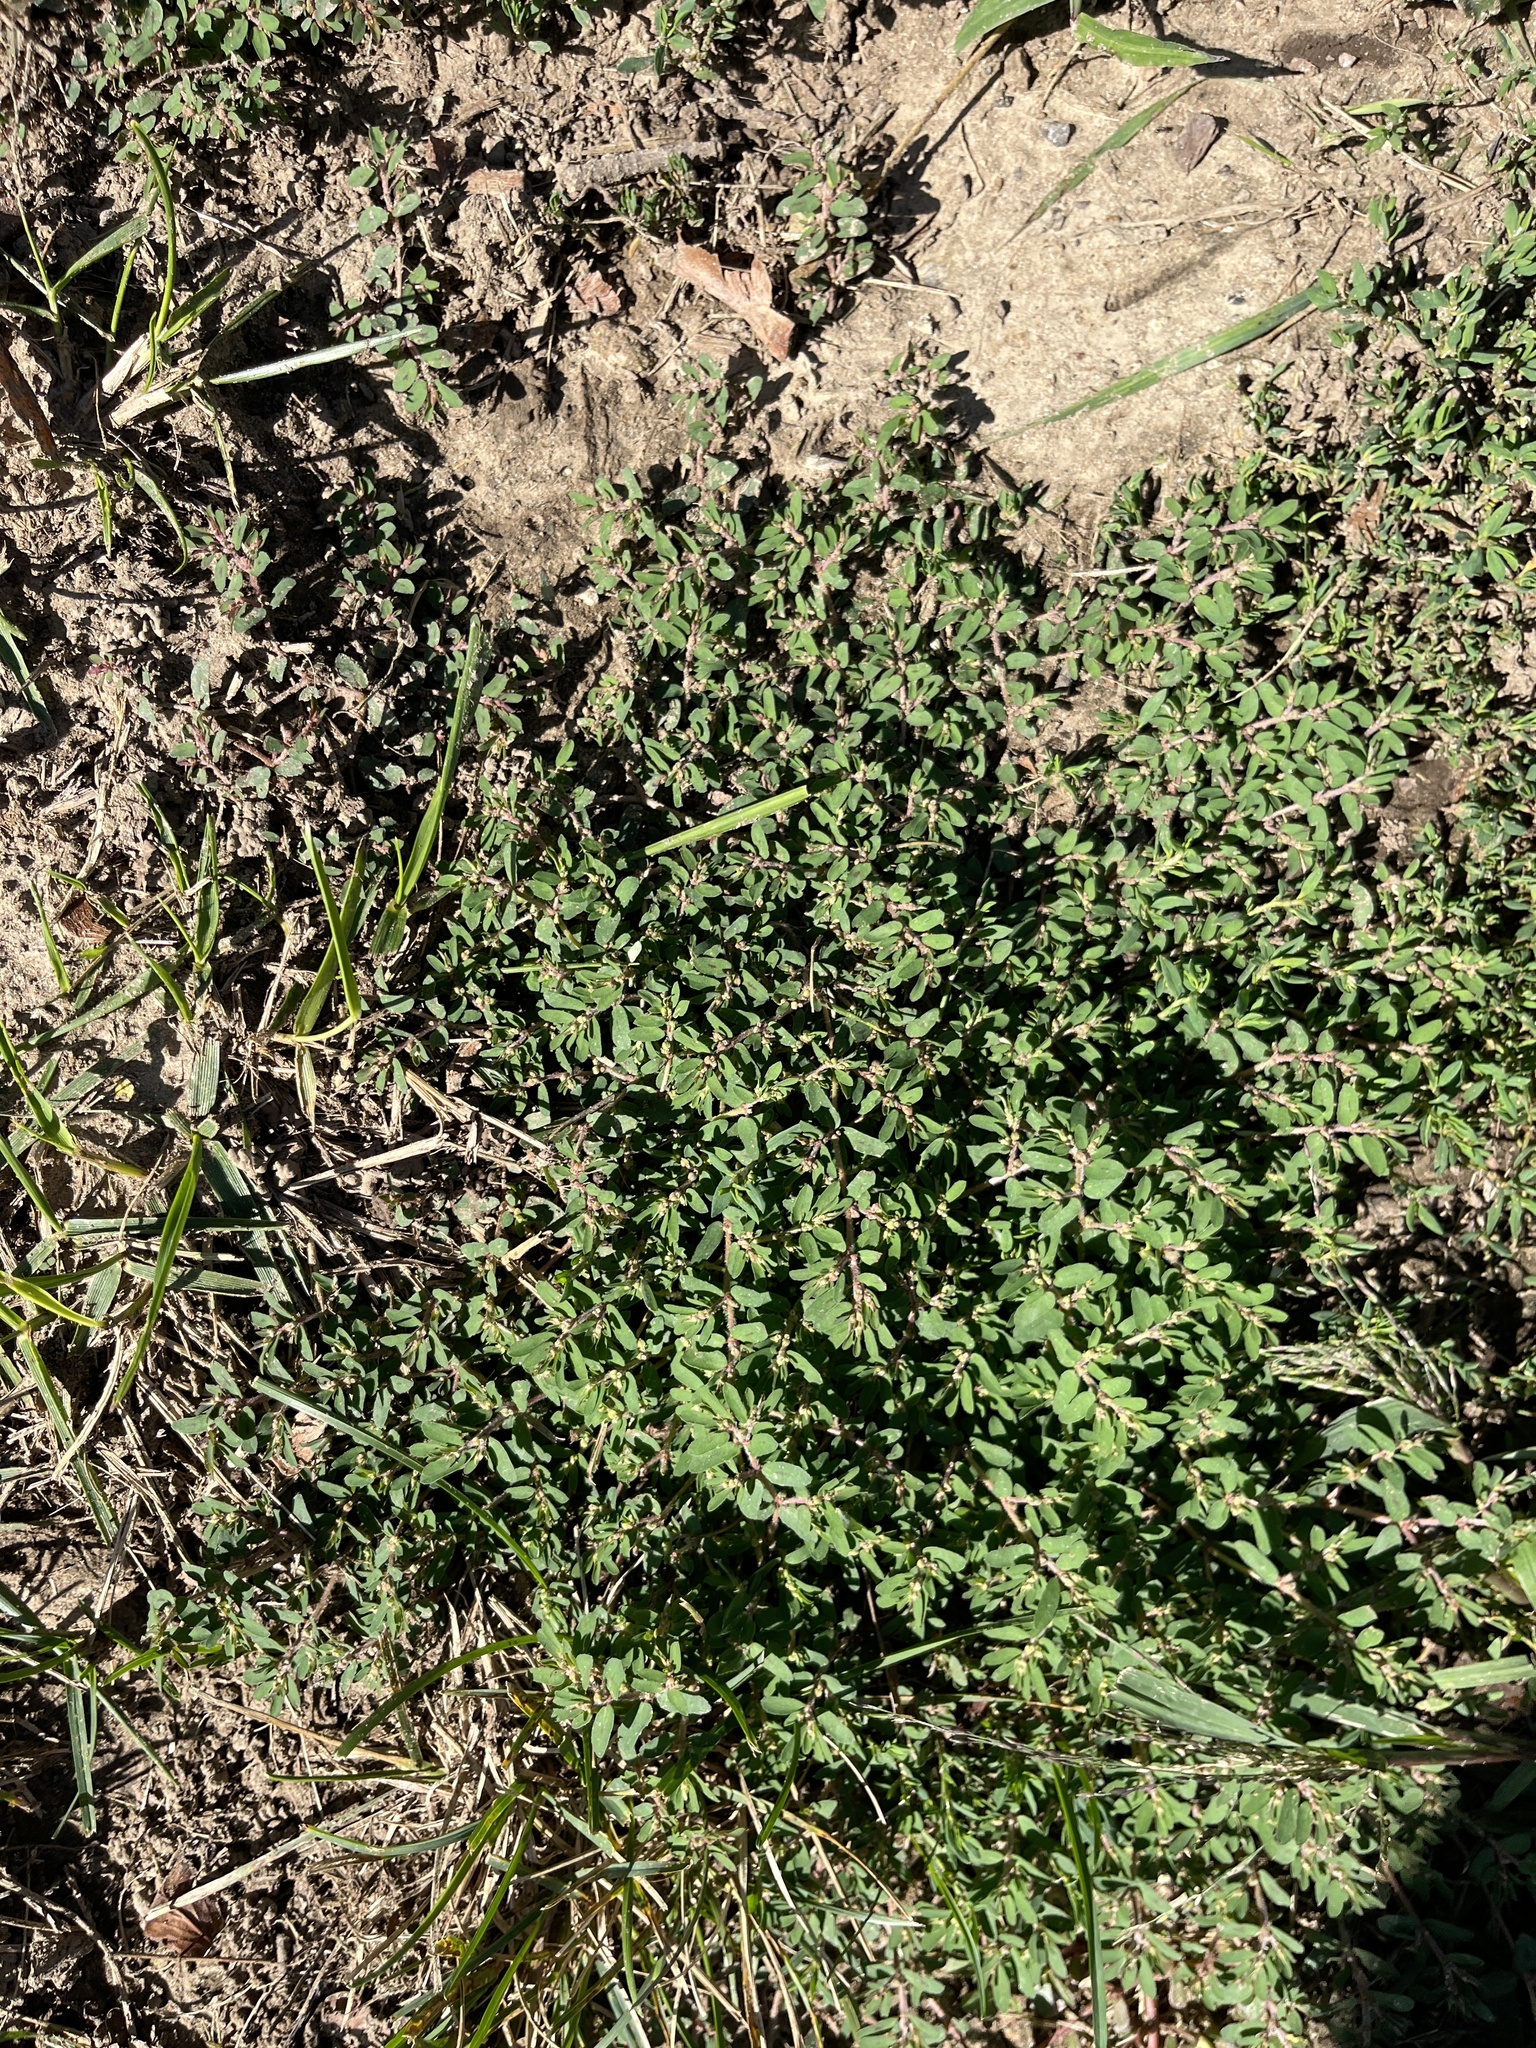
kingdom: Plantae
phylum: Tracheophyta
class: Magnoliopsida
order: Malpighiales
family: Euphorbiaceae
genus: Euphorbia
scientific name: Euphorbia maculata
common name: Spotted spurge
